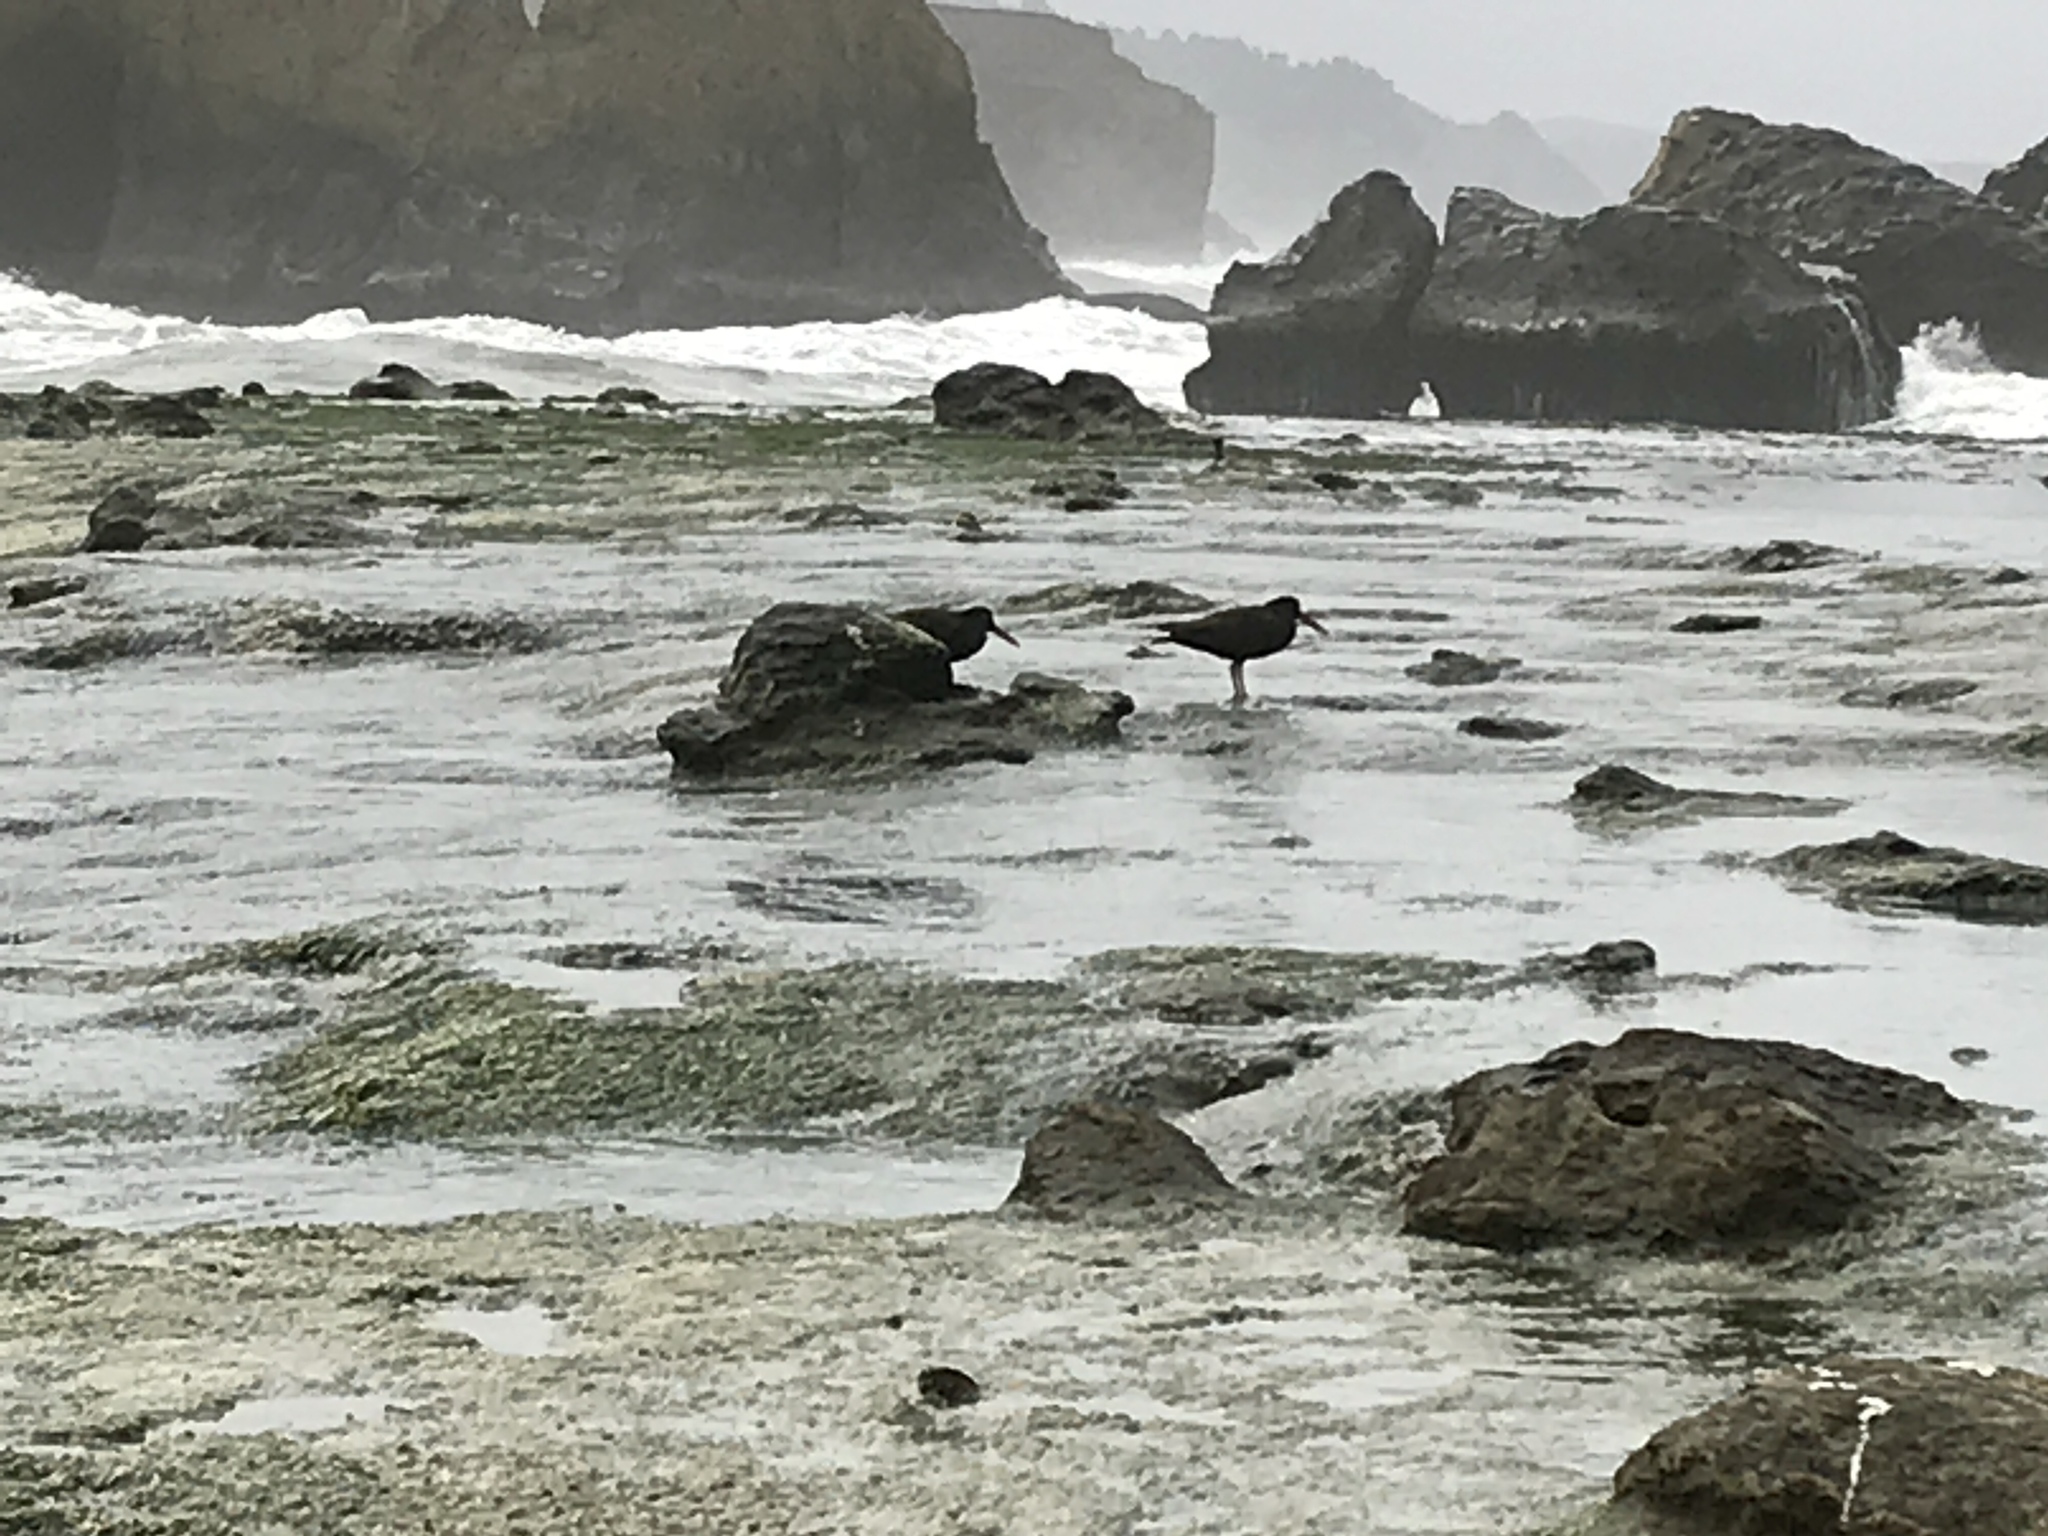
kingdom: Animalia
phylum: Chordata
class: Aves
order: Charadriiformes
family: Haematopodidae
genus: Haematopus
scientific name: Haematopus bachmani
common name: Black oystercatcher
